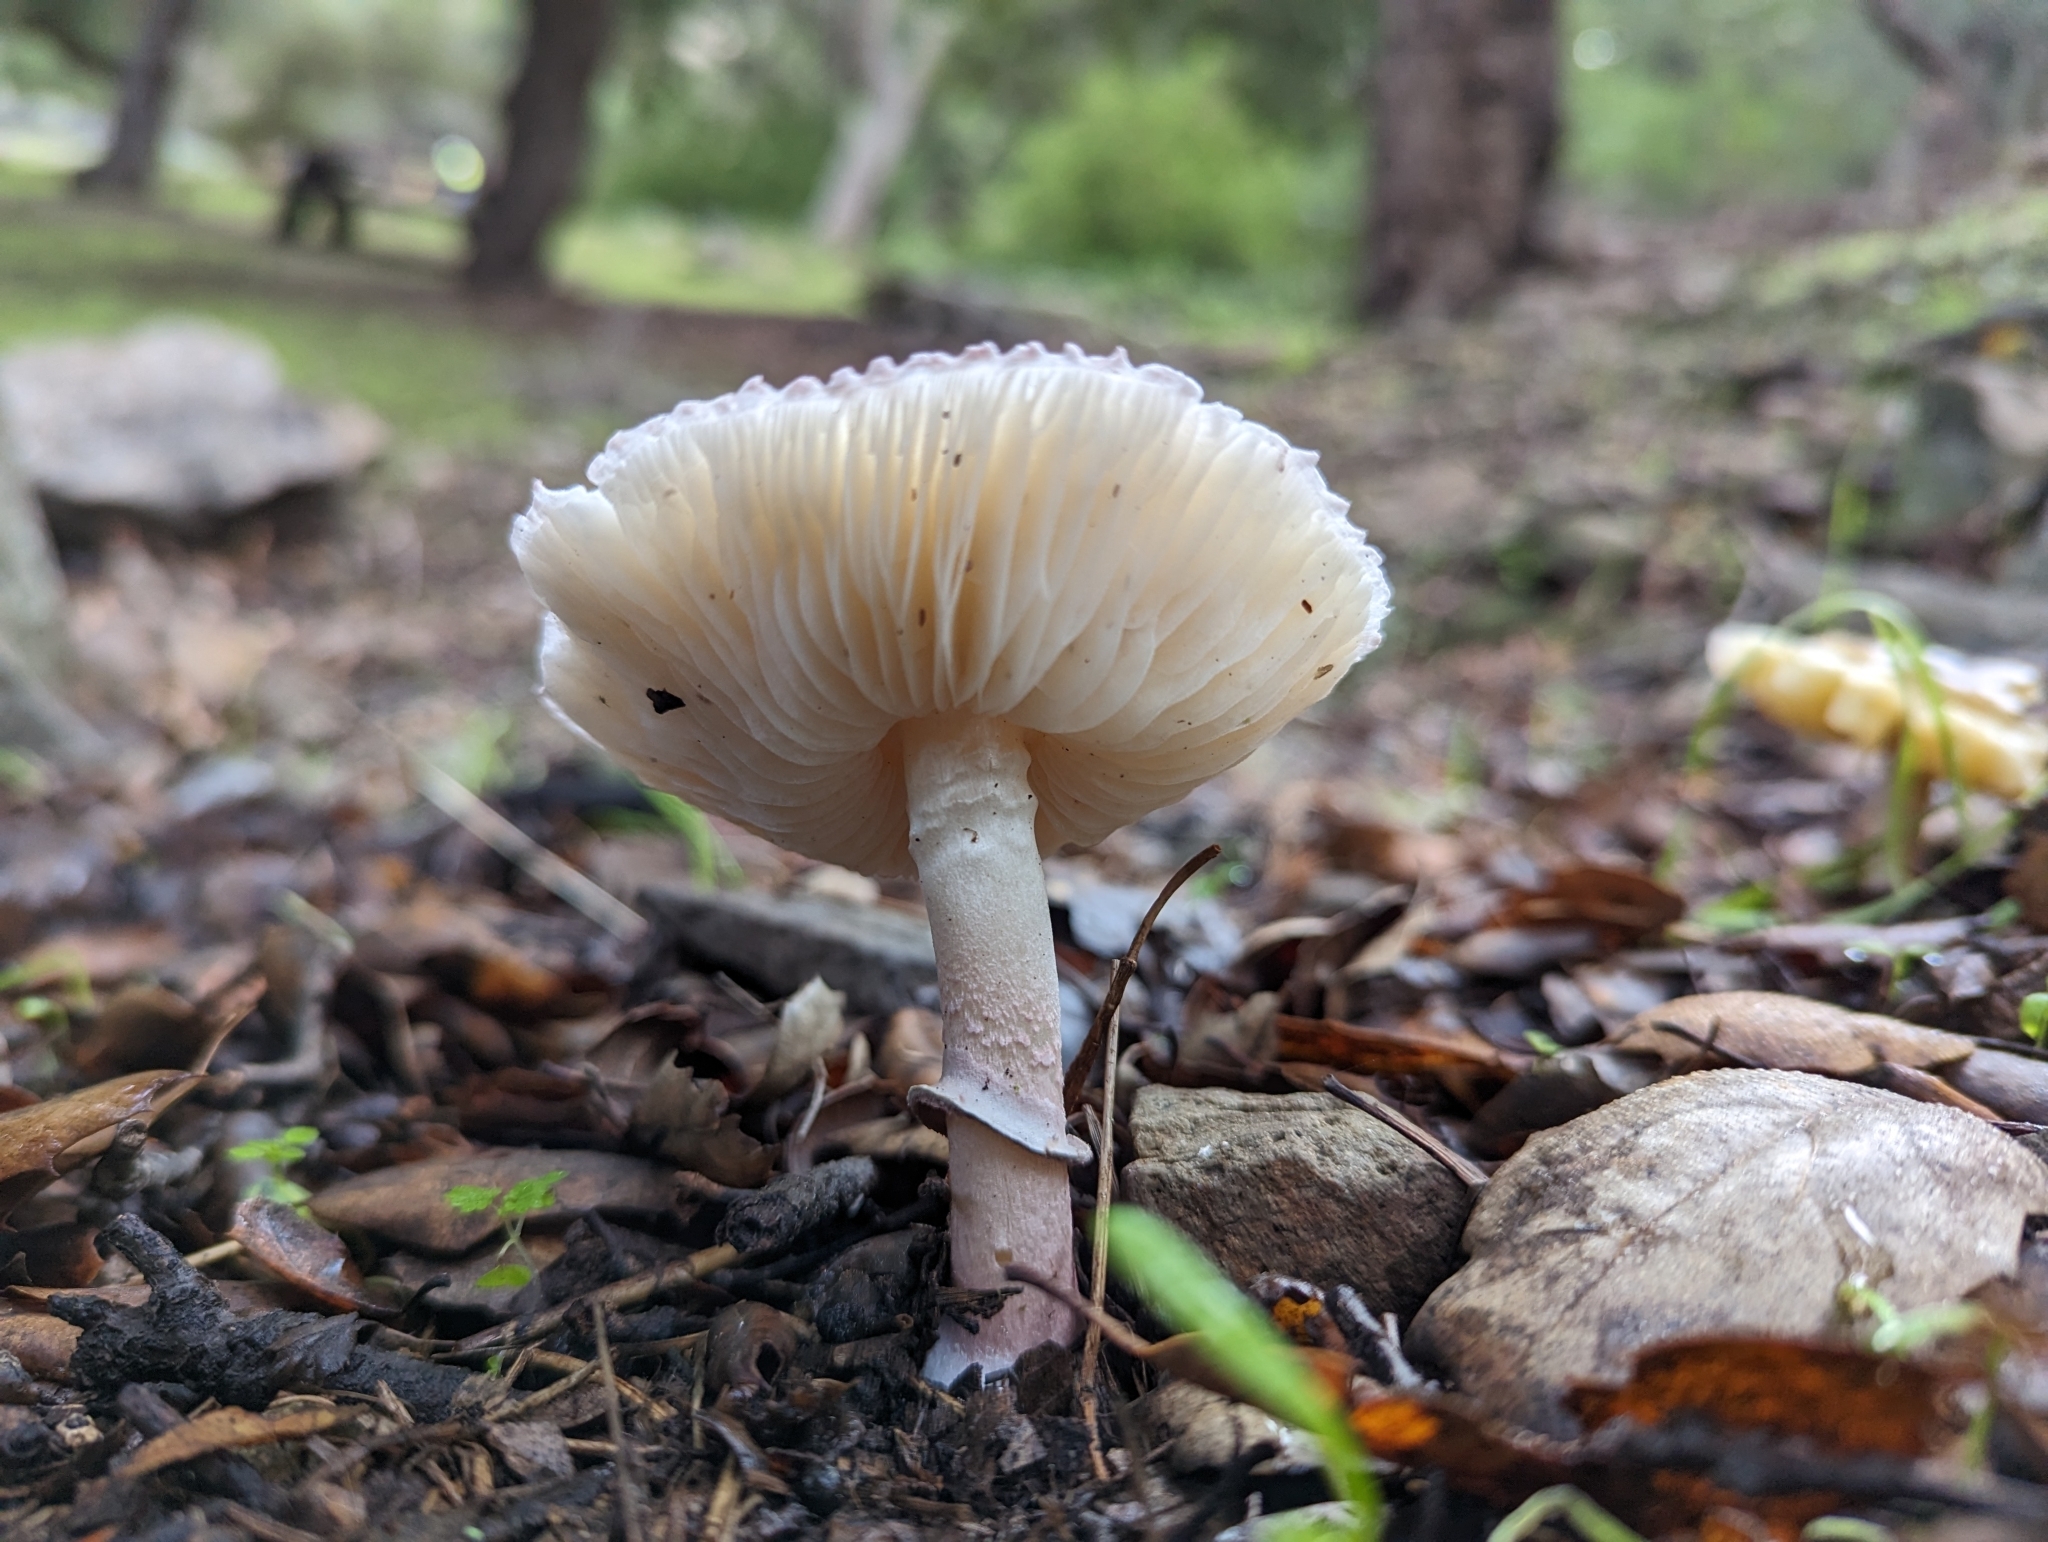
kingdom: Fungi
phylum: Basidiomycota
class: Agaricomycetes
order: Agaricales
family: Agaricaceae
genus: Lepiota
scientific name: Lepiota decorata
